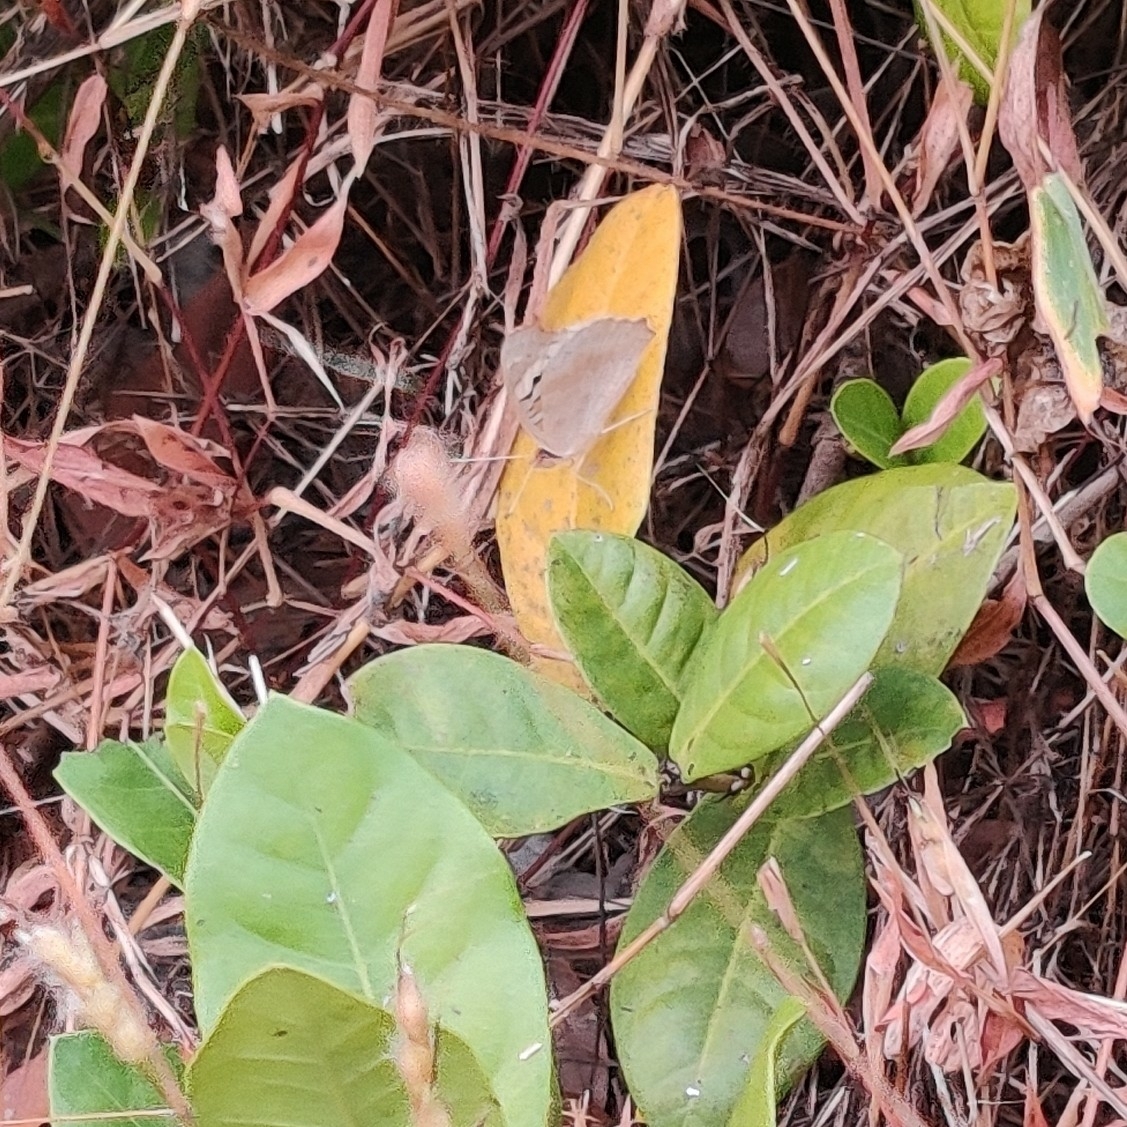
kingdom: Animalia
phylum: Arthropoda
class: Insecta
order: Lepidoptera
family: Nymphalidae
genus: Junonia
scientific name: Junonia orithya
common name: Blue pansy
